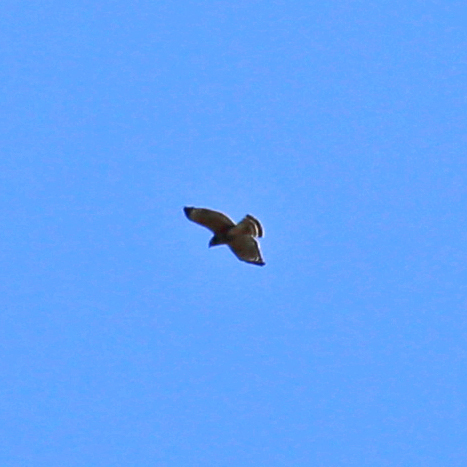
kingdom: Animalia
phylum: Chordata
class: Aves
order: Accipitriformes
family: Accipitridae
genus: Buteo
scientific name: Buteo lineatus
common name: Red-shouldered hawk
